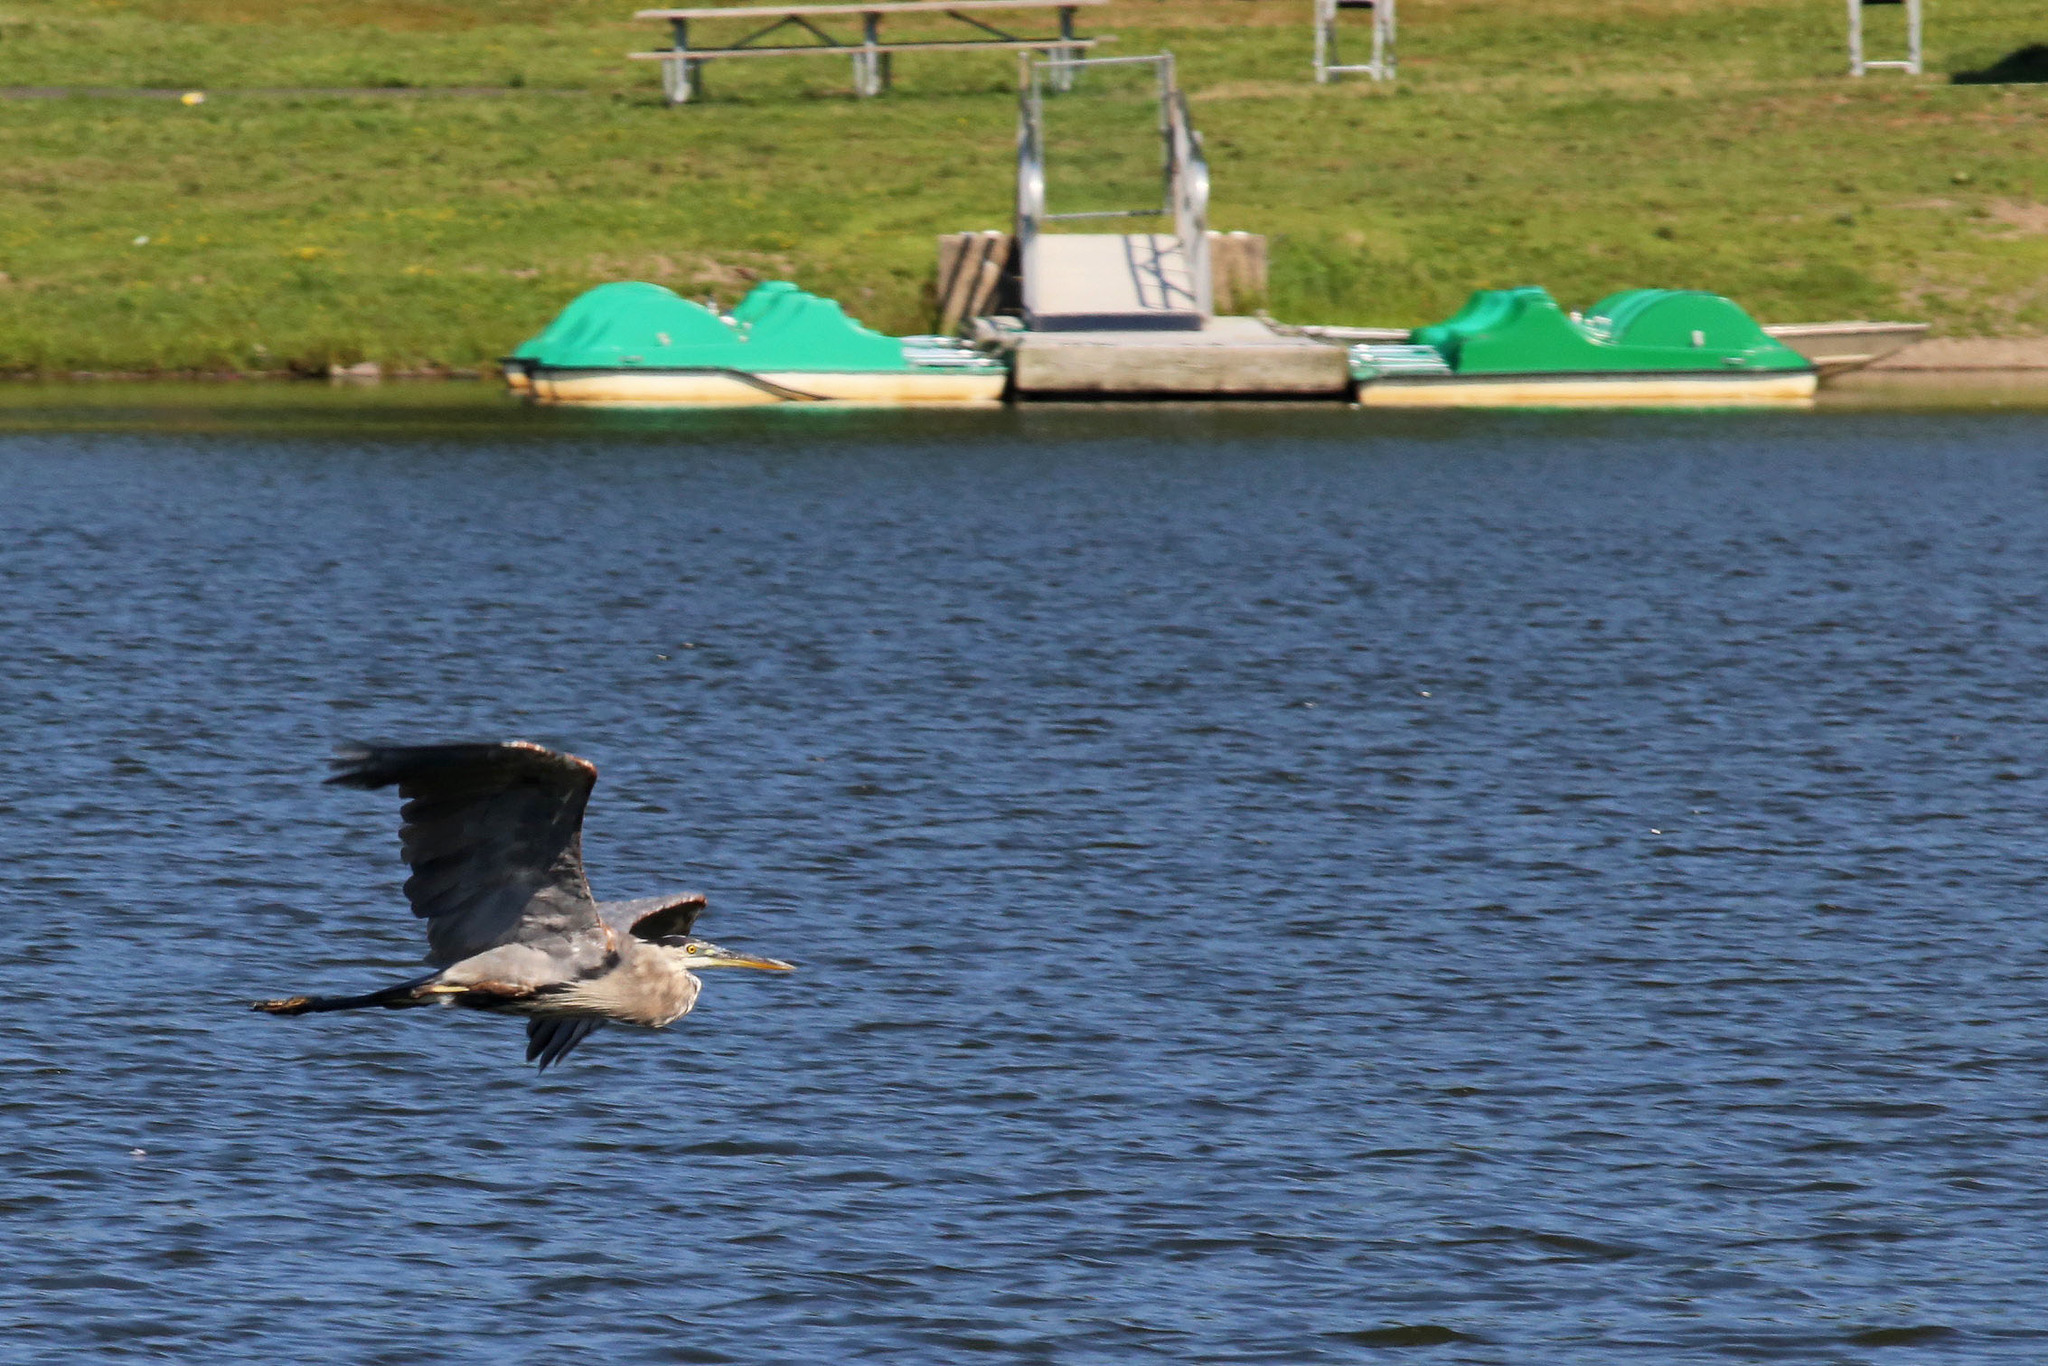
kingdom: Animalia
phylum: Chordata
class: Aves
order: Pelecaniformes
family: Ardeidae
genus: Ardea
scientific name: Ardea herodias
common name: Great blue heron
